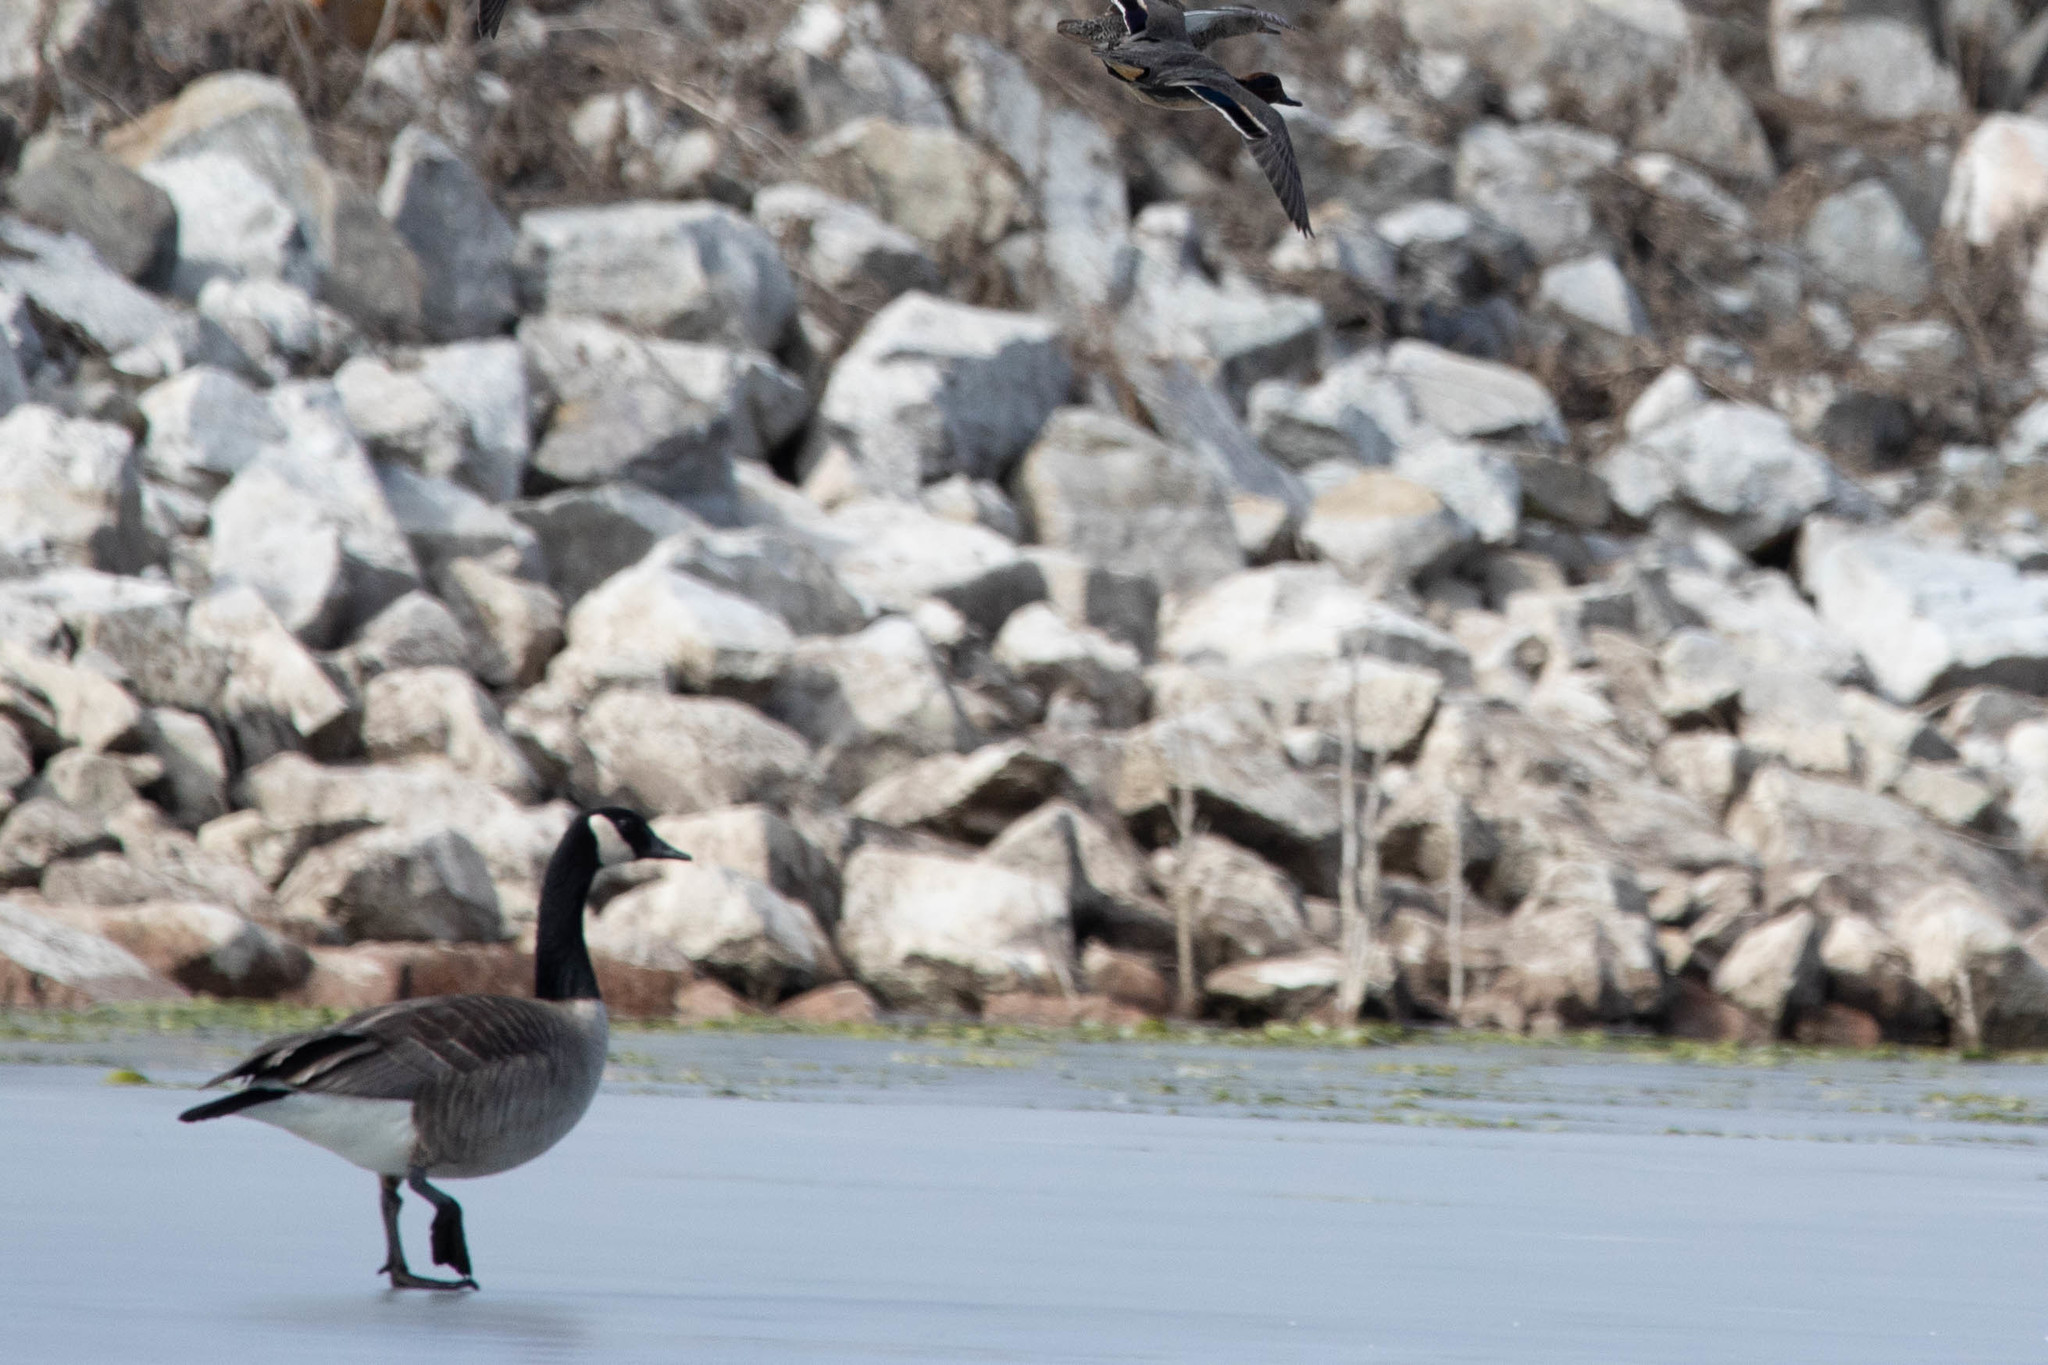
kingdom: Animalia
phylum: Chordata
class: Aves
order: Anseriformes
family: Anatidae
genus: Branta
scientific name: Branta canadensis
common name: Canada goose
